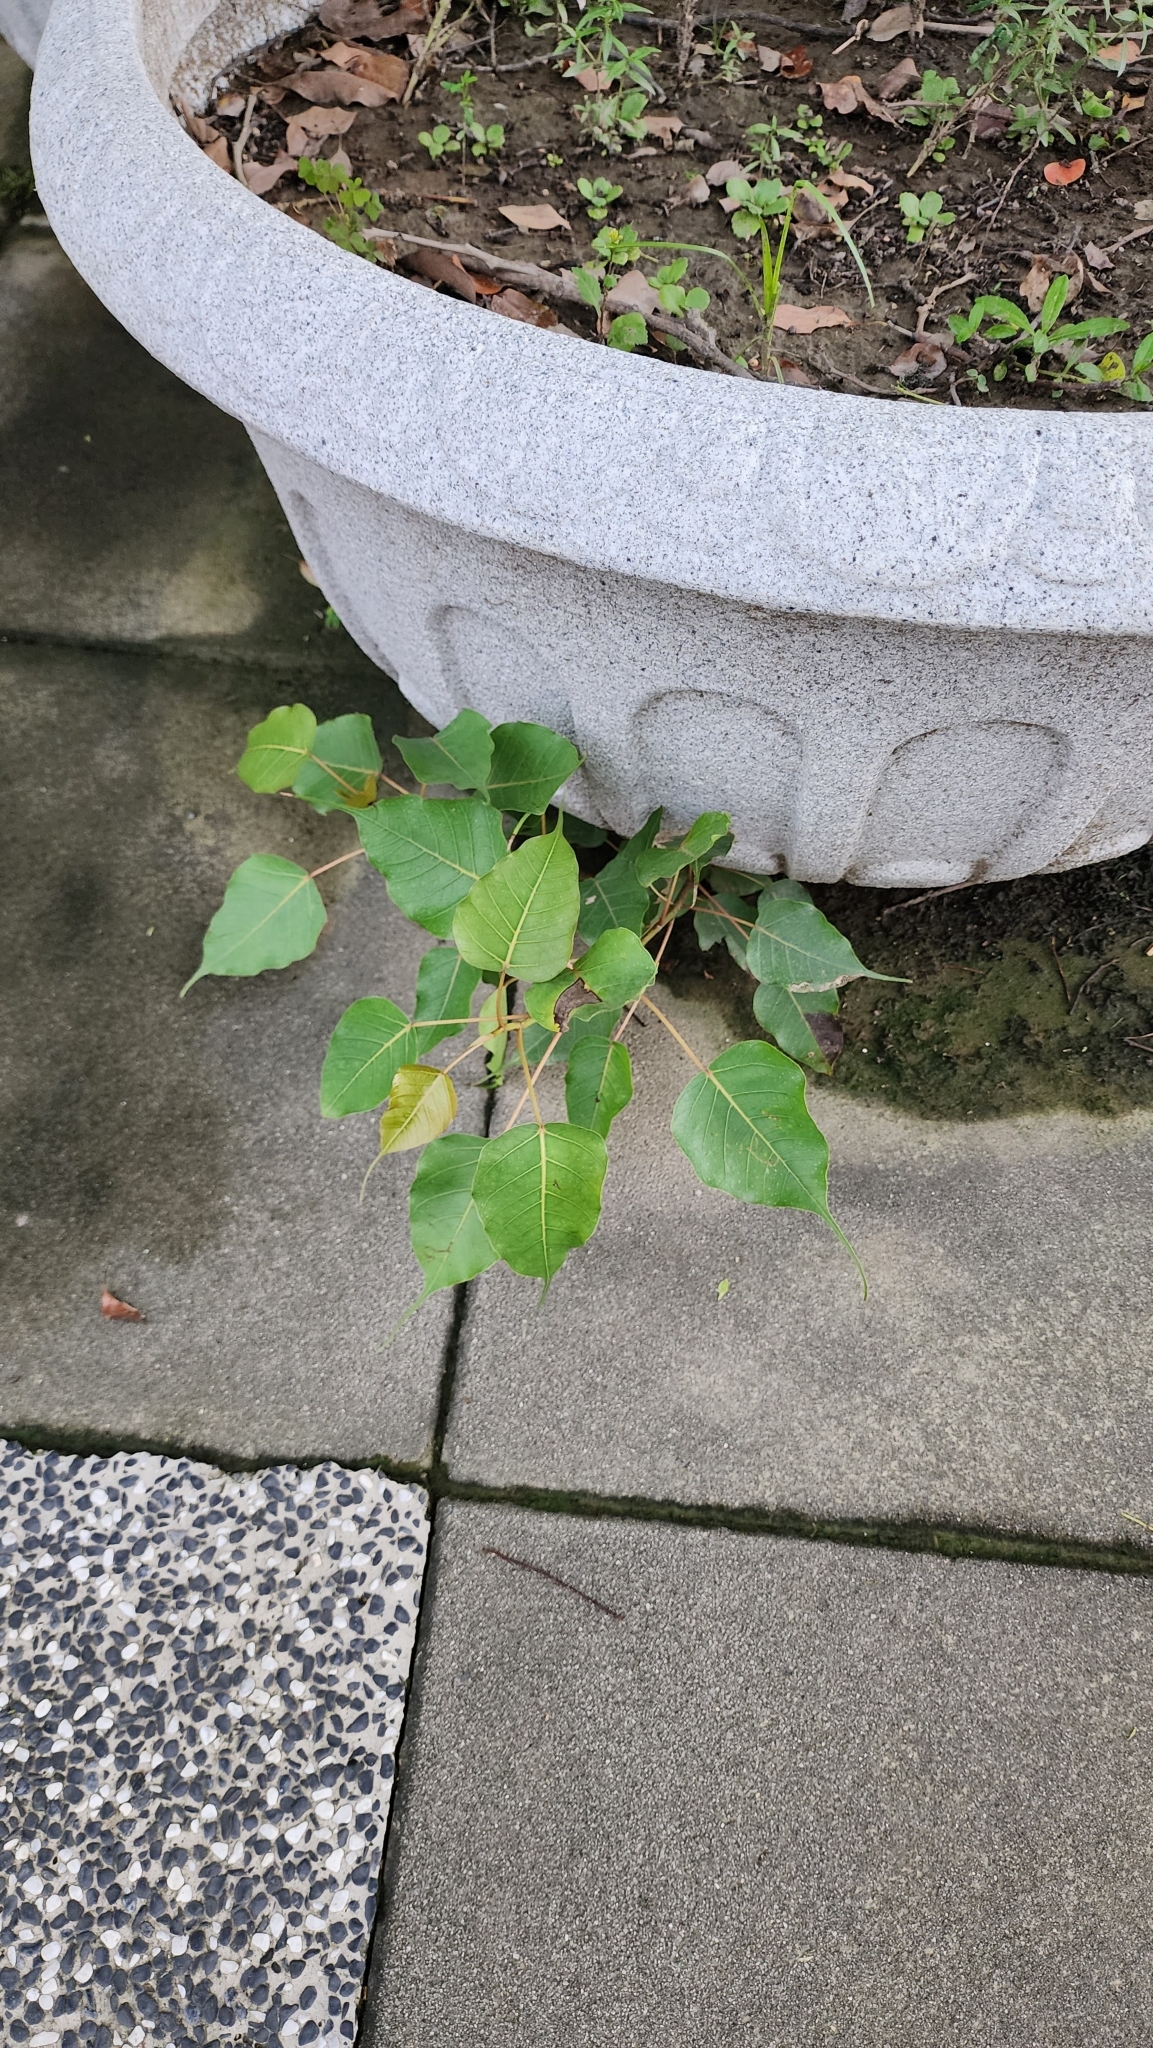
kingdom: Plantae
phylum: Tracheophyta
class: Magnoliopsida
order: Rosales
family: Moraceae
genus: Ficus
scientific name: Ficus religiosa
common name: Bodhi tree
